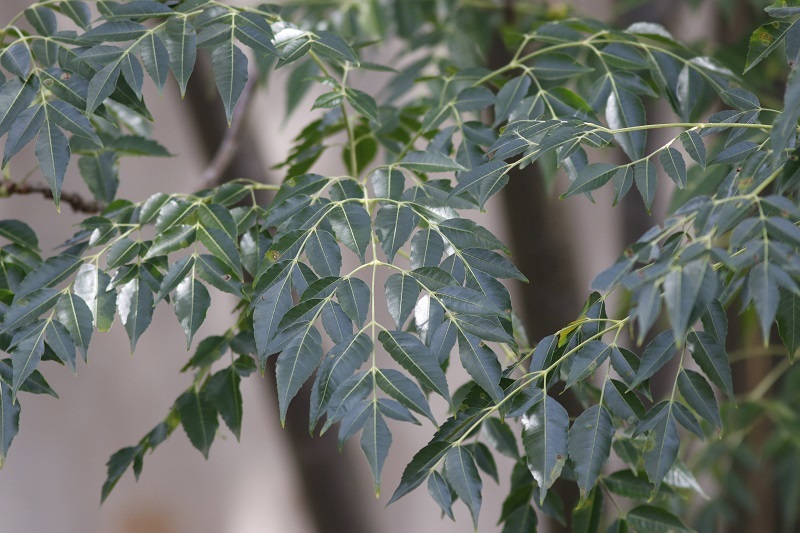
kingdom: Plantae
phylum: Tracheophyta
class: Magnoliopsida
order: Sapindales
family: Meliaceae
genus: Melia
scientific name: Melia azedarach
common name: Chinaberrytree
